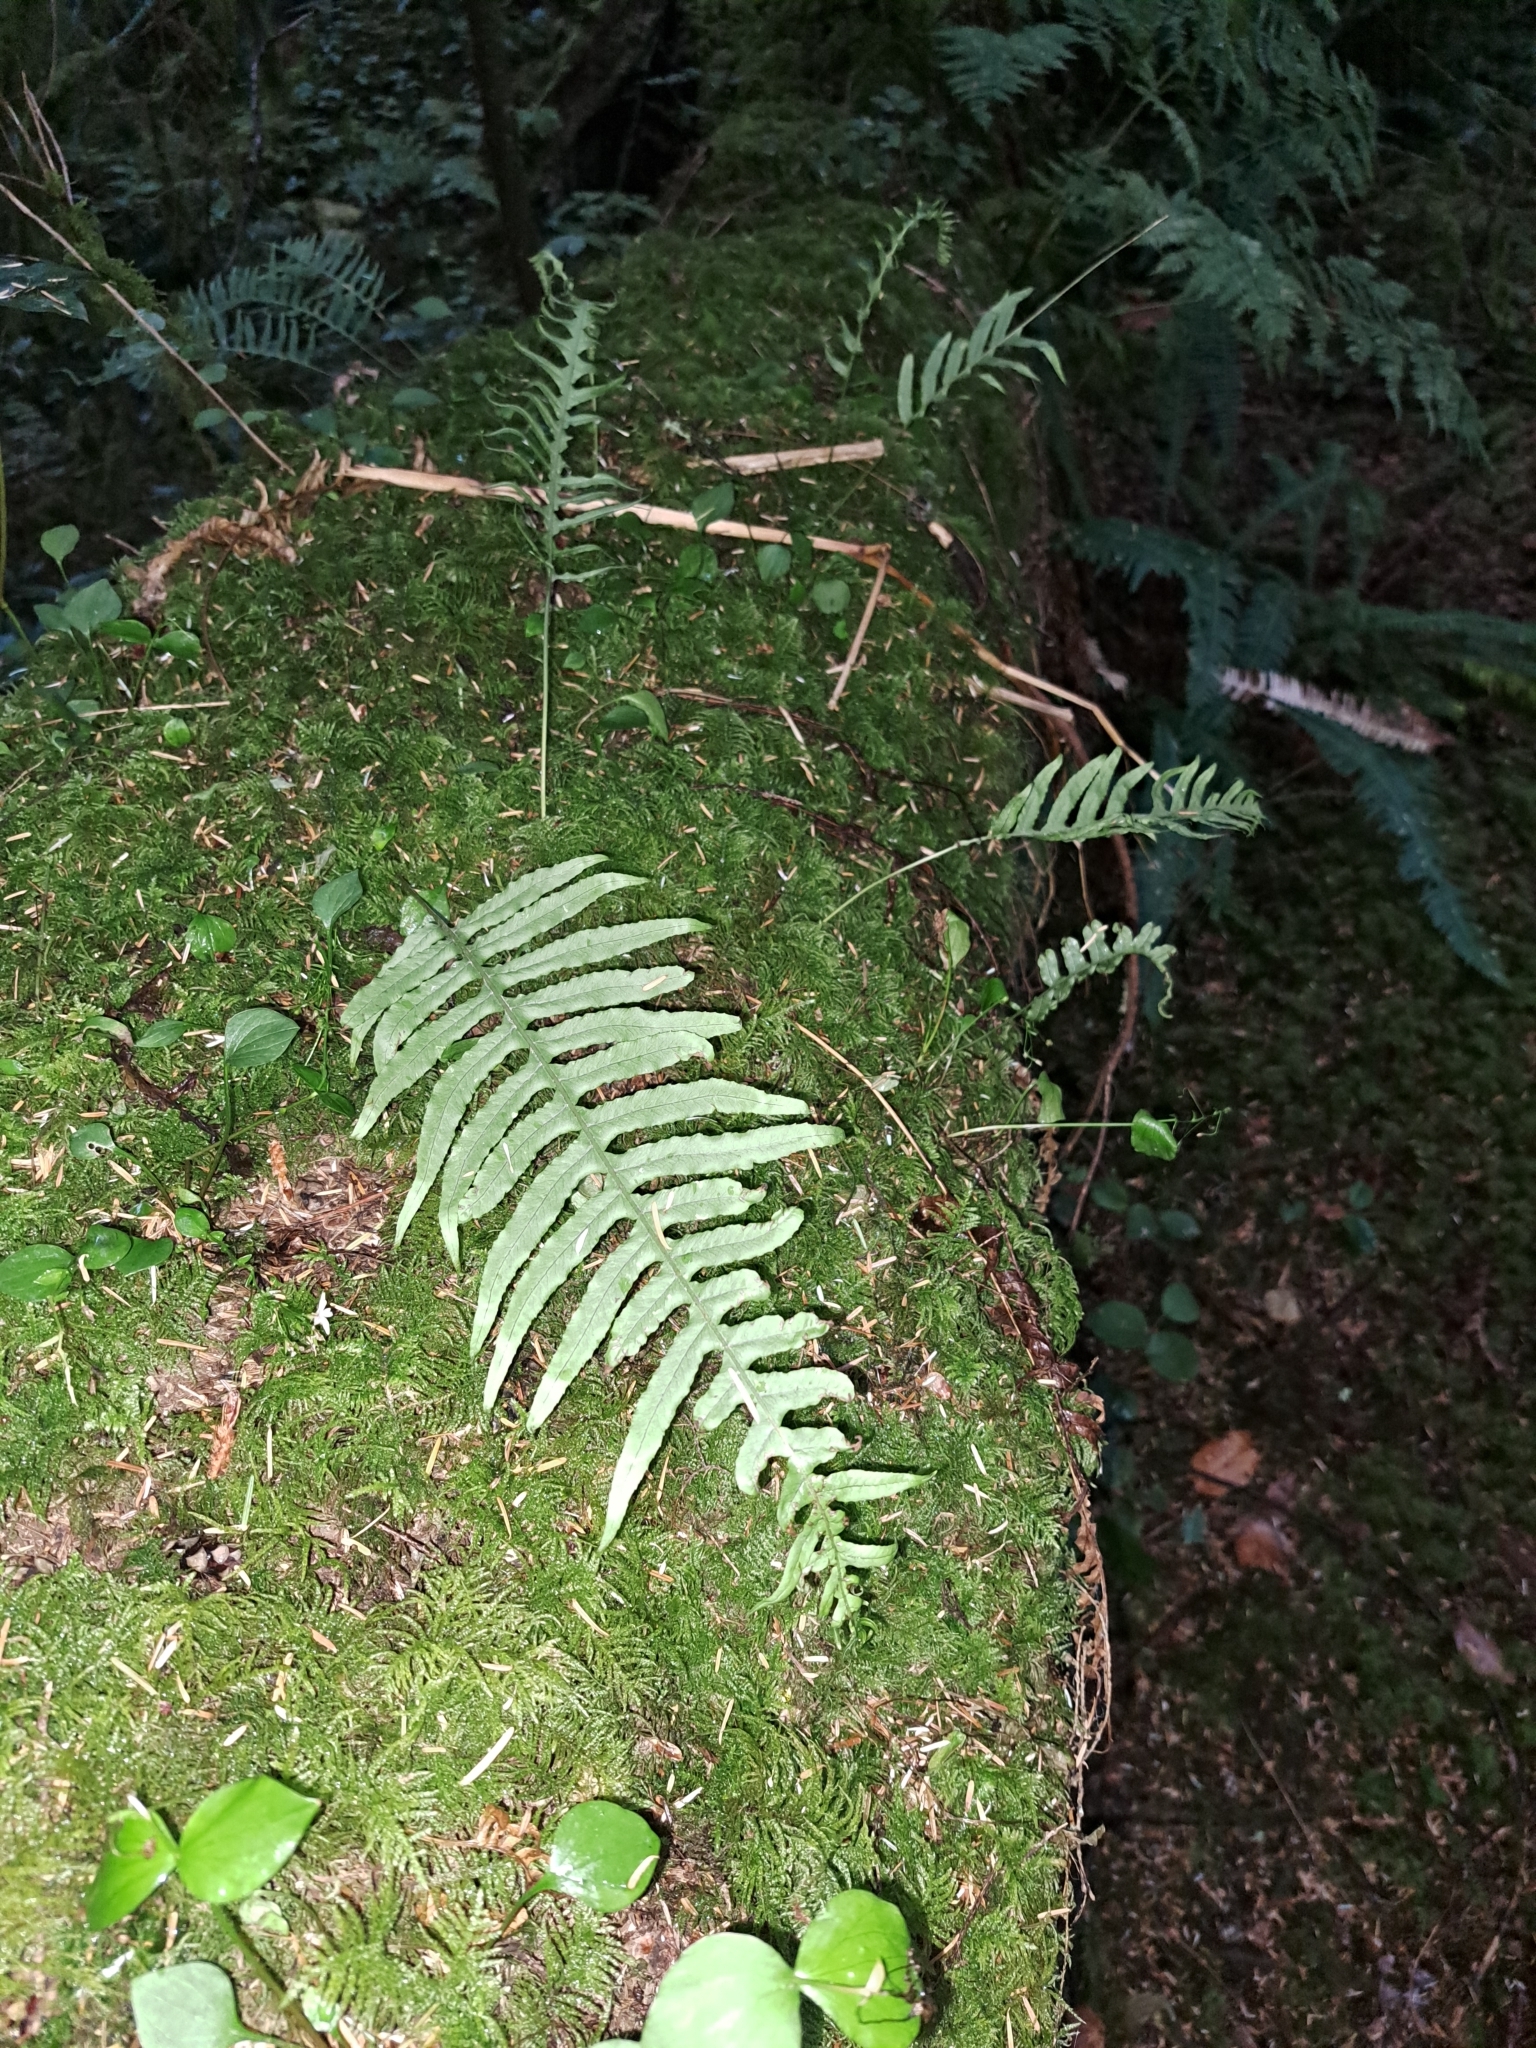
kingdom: Plantae
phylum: Tracheophyta
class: Polypodiopsida
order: Polypodiales
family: Polypodiaceae
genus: Polypodium
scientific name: Polypodium glycyrrhiza
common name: Licorice fern
